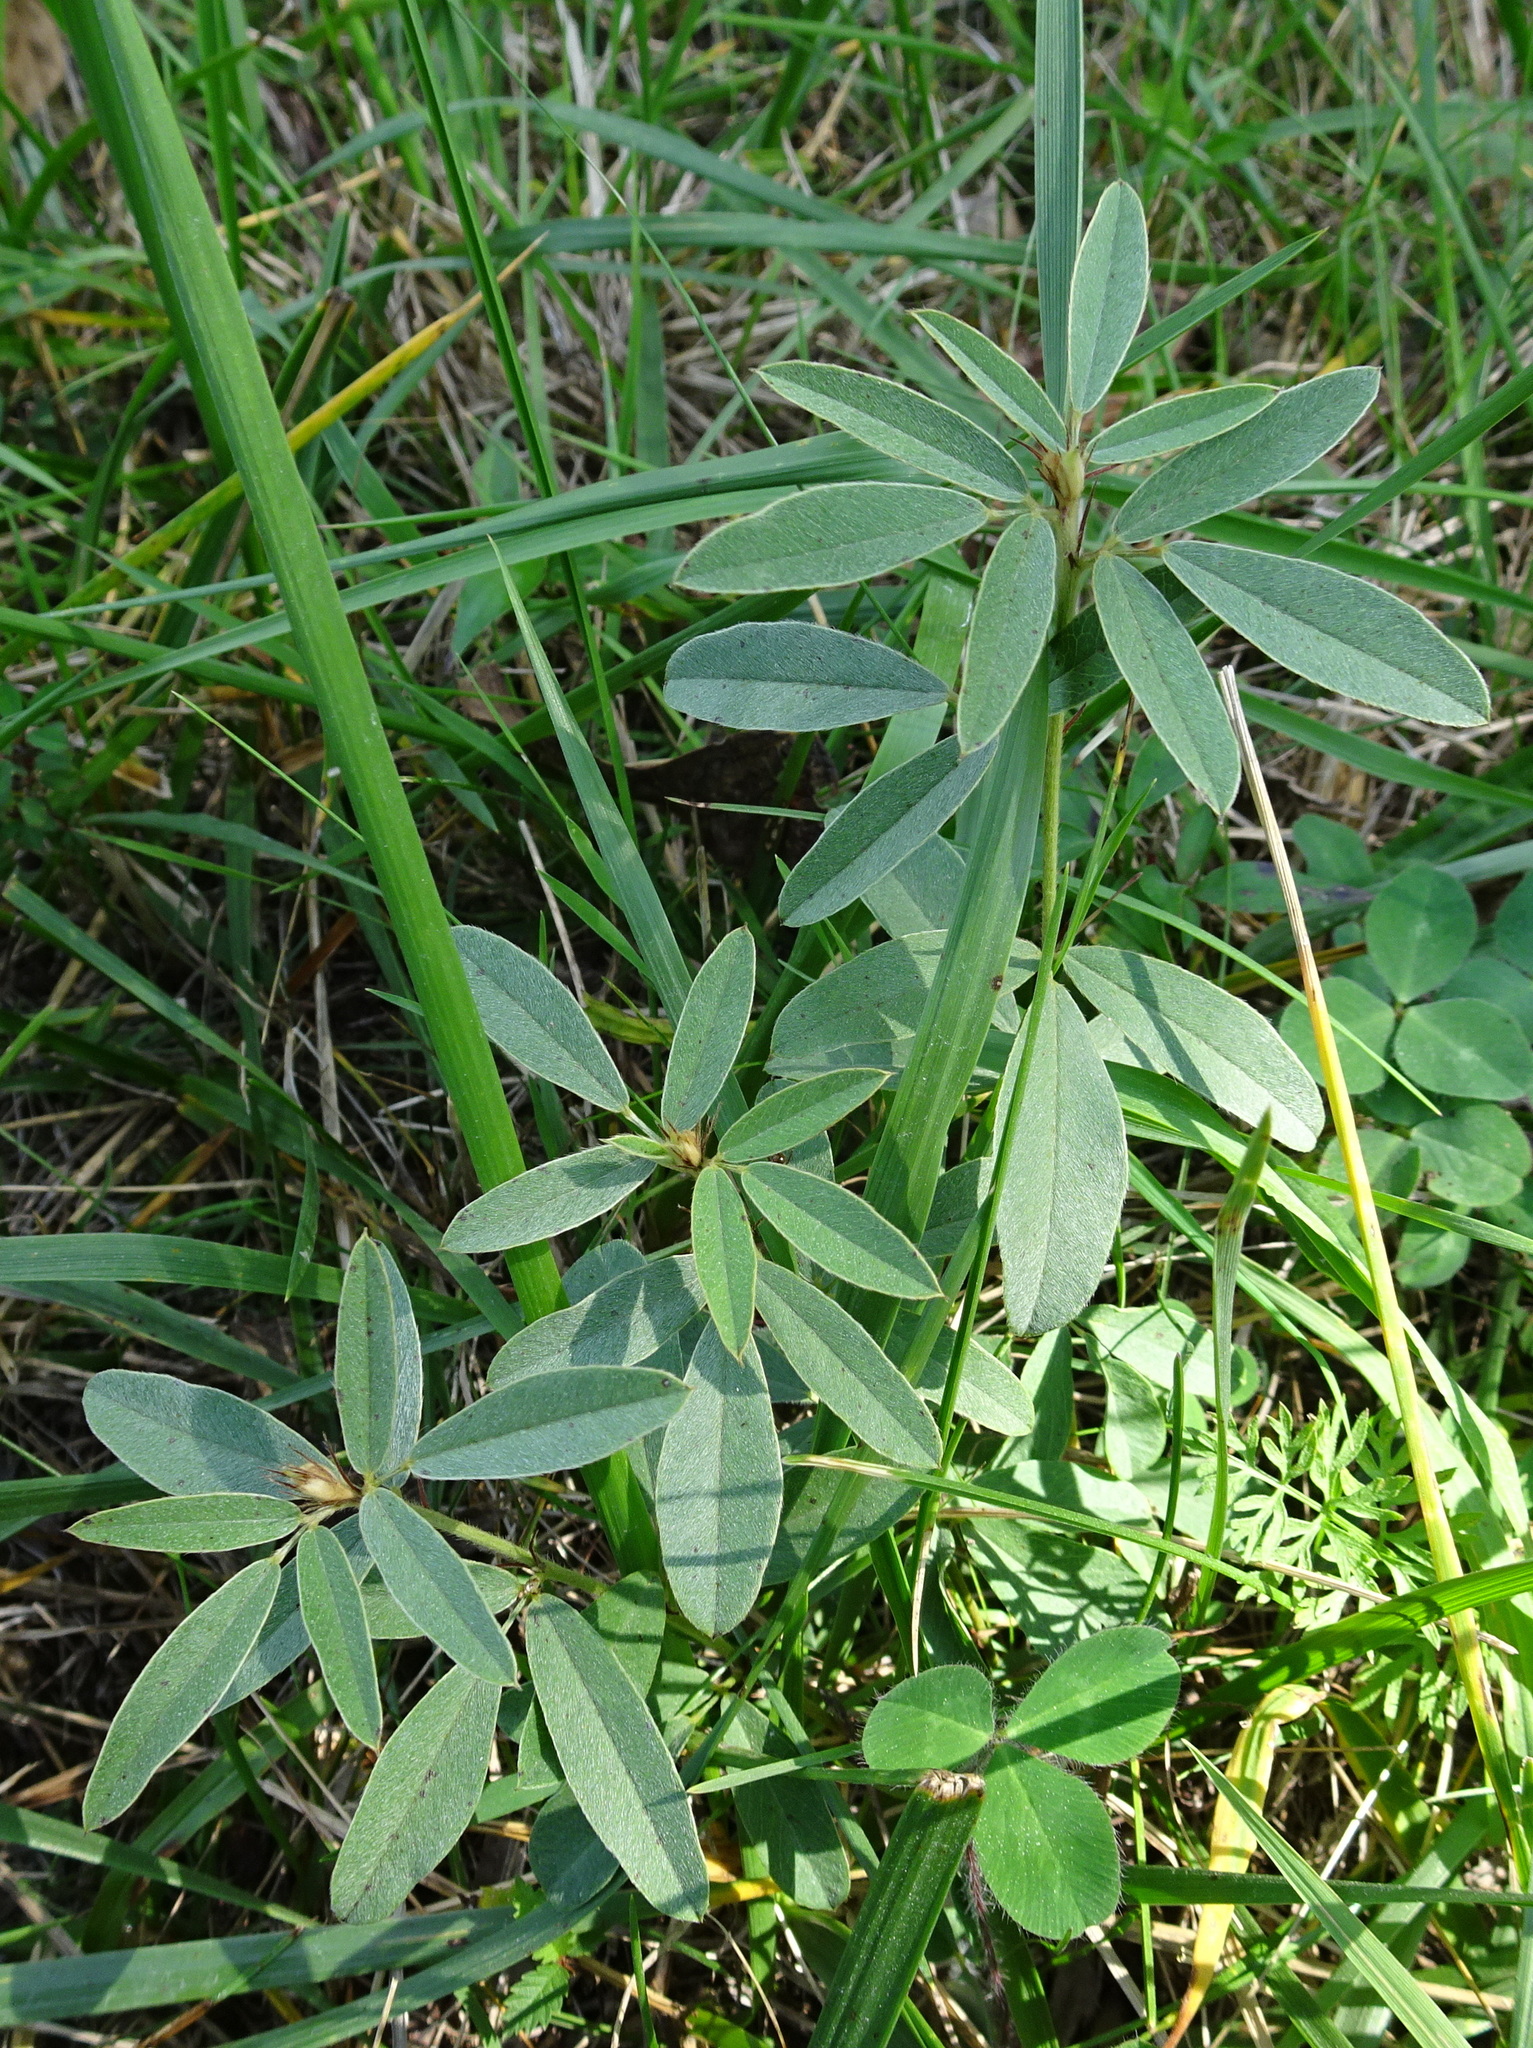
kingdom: Plantae
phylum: Tracheophyta
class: Magnoliopsida
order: Fabales
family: Fabaceae
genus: Lespedeza
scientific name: Lespedeza capitata
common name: Dusty clover
